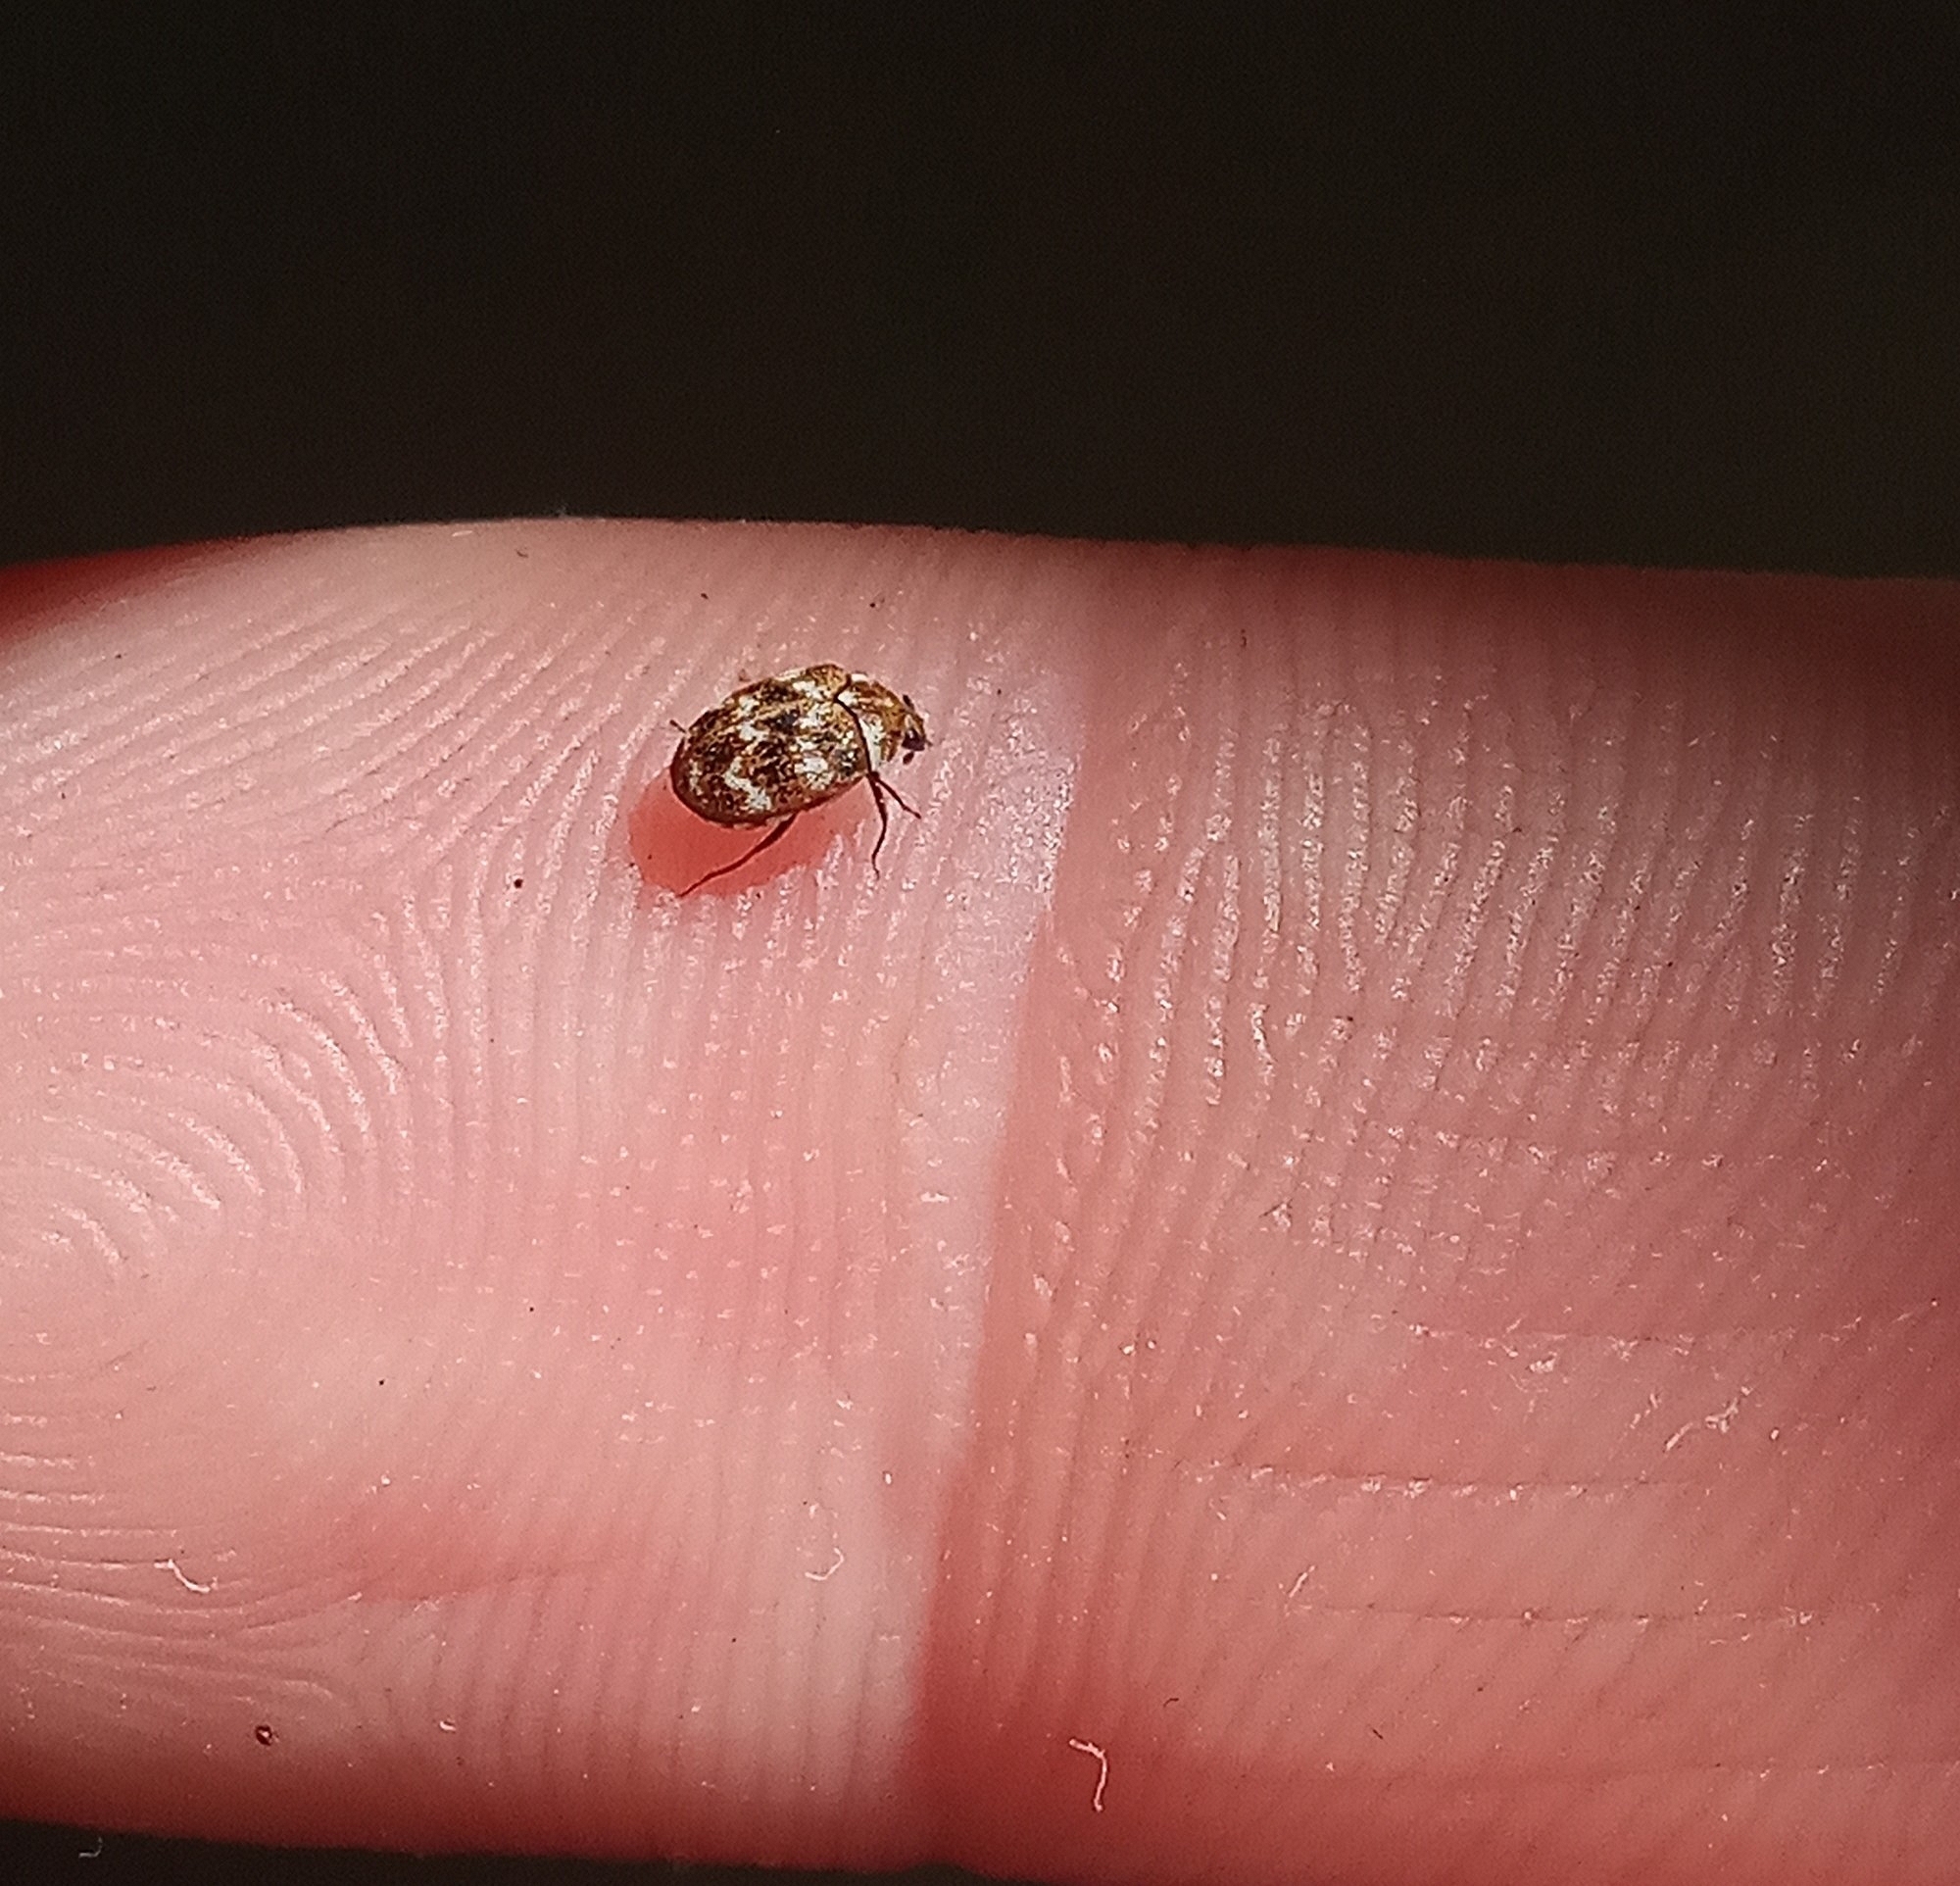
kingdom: Animalia
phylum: Arthropoda
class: Insecta
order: Coleoptera
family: Dermestidae
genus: Anthrenus
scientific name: Anthrenus verbasci
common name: Varied carpet beetle
